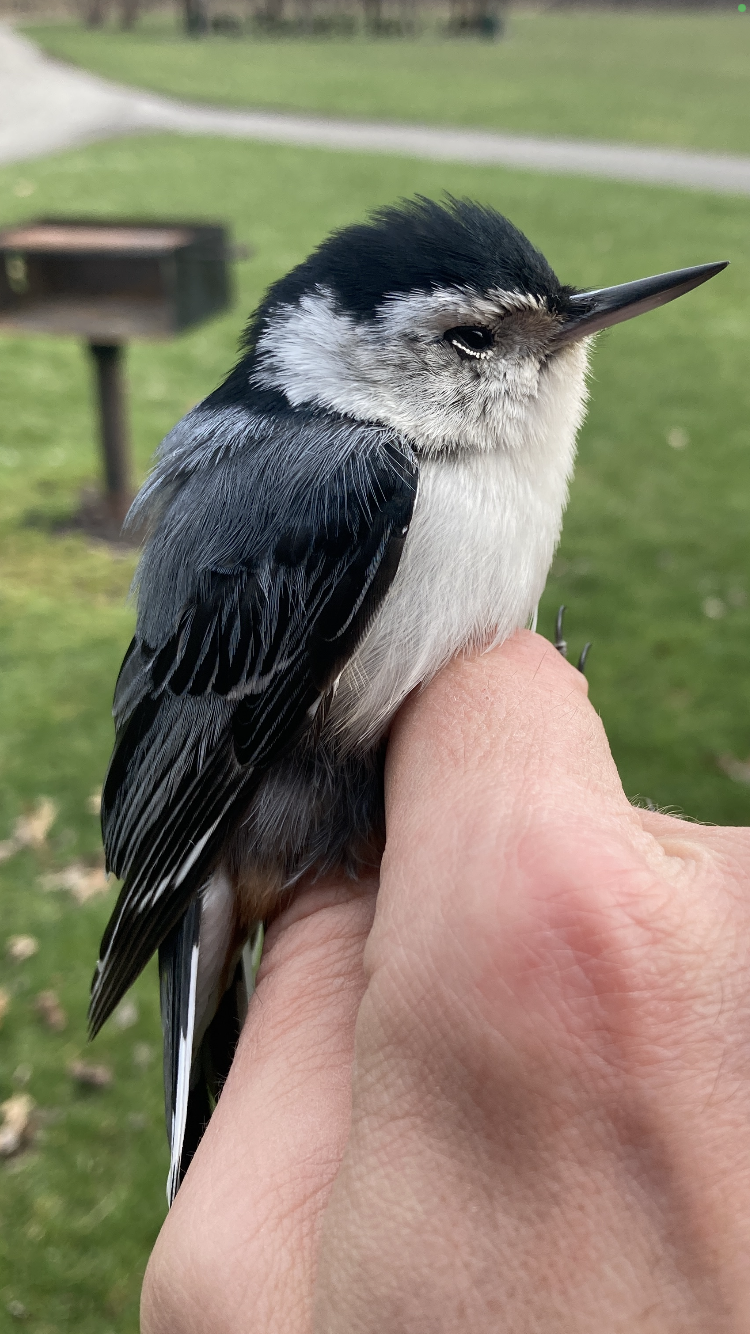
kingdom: Animalia
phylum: Chordata
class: Aves
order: Passeriformes
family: Sittidae
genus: Sitta
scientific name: Sitta carolinensis
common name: White-breasted nuthatch
